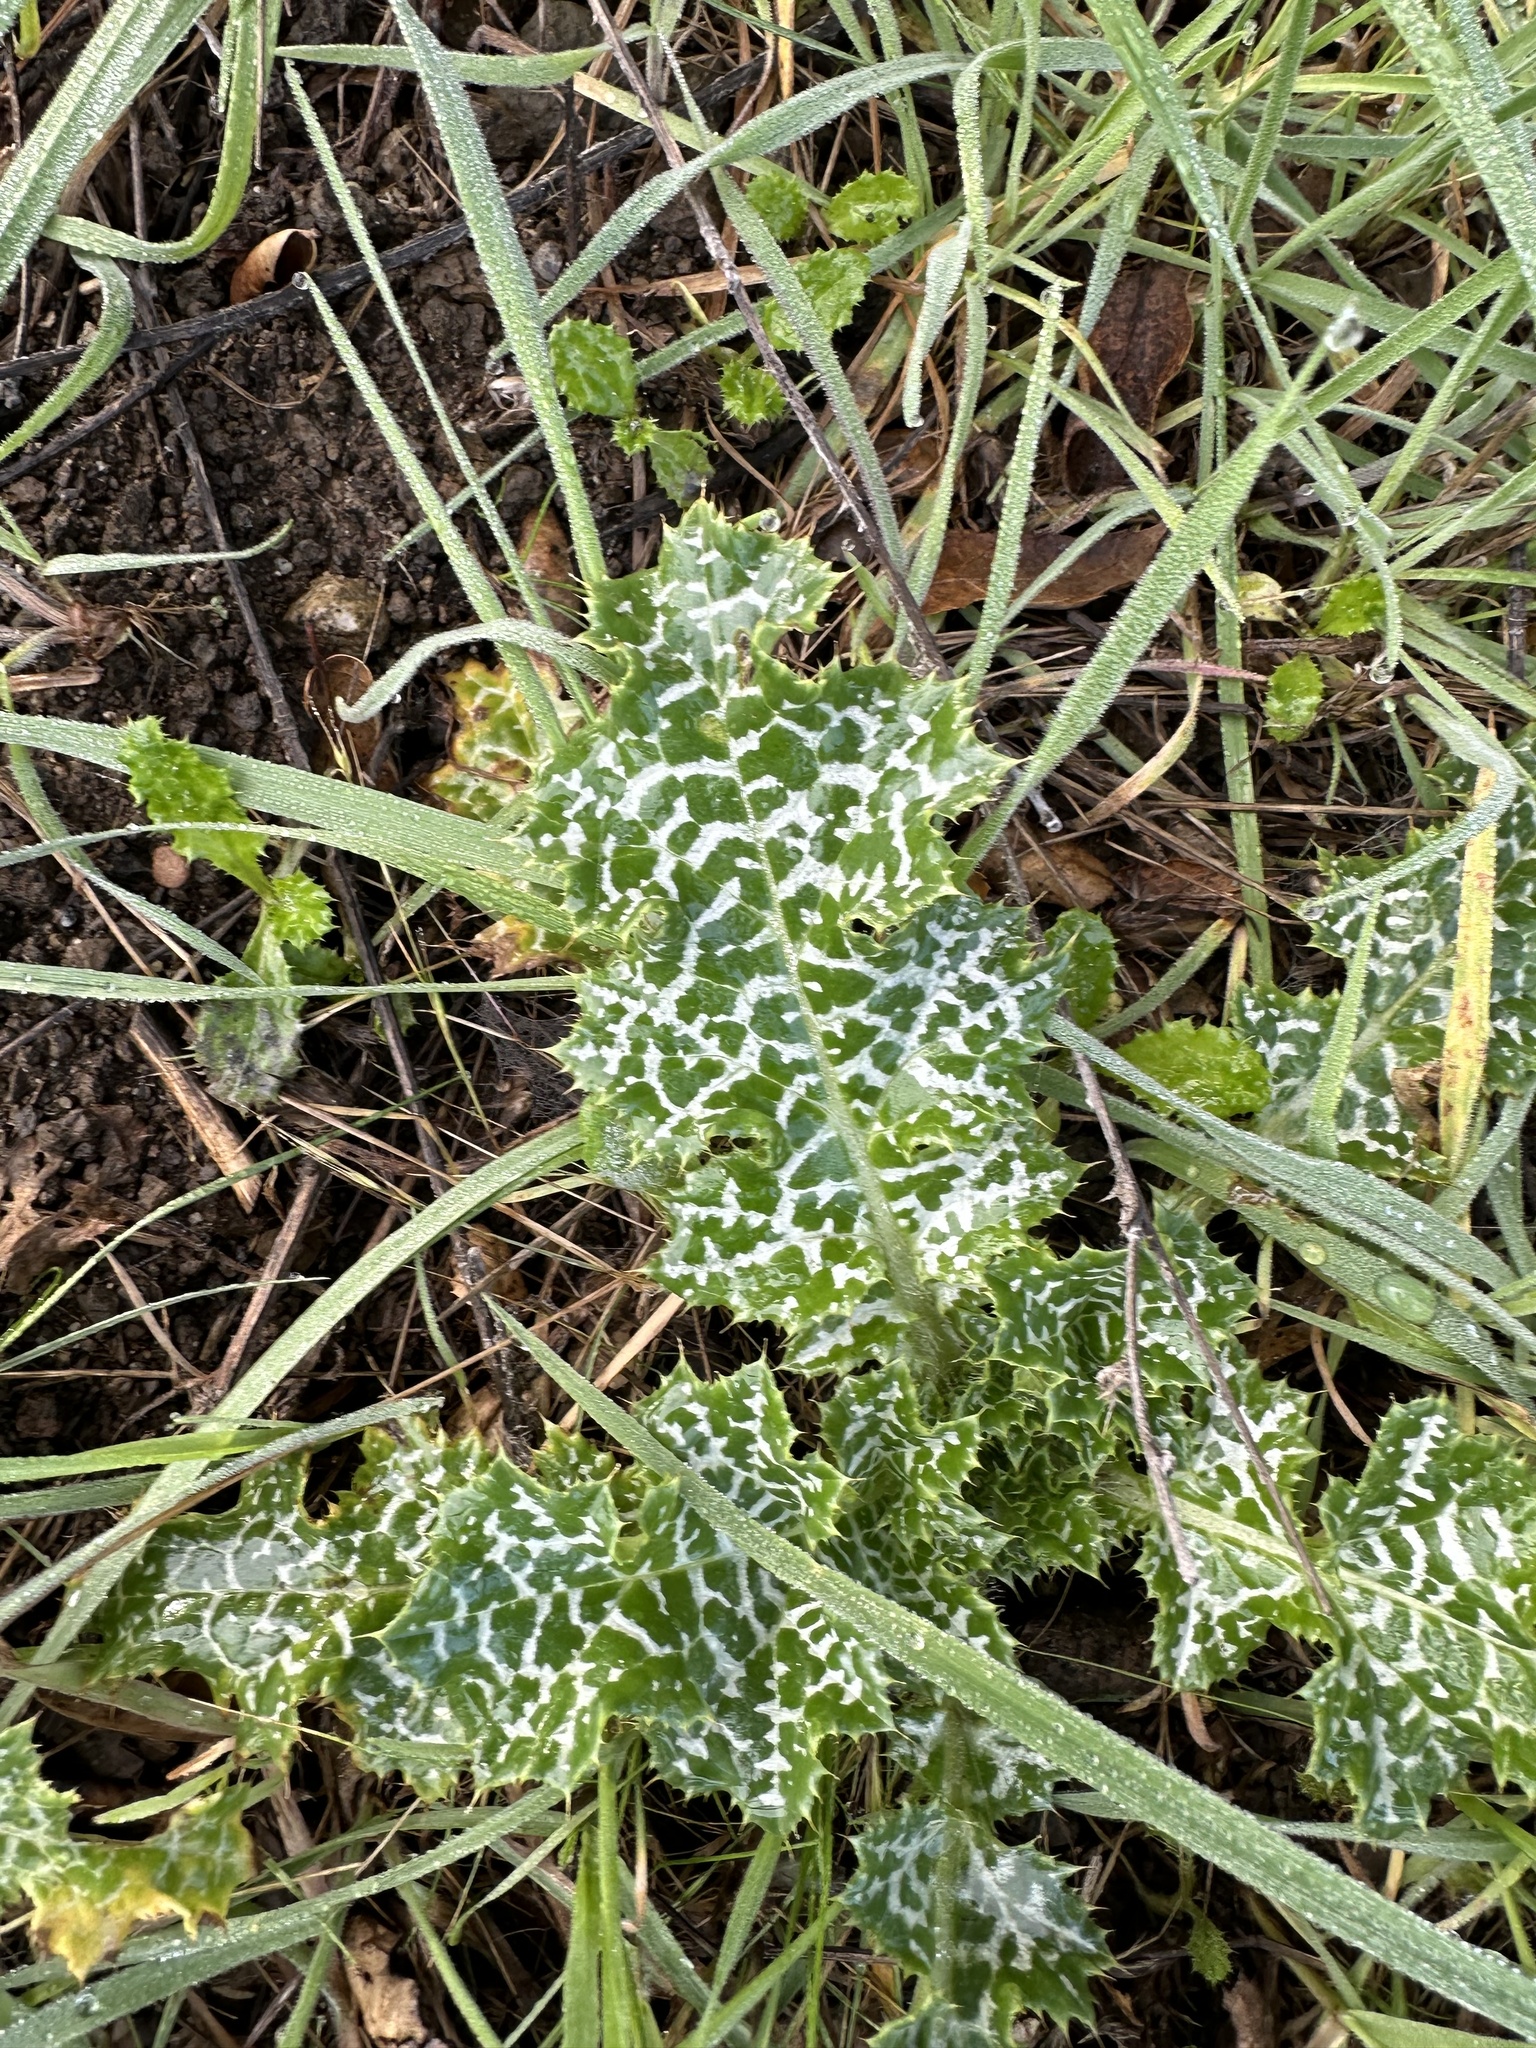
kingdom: Plantae
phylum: Tracheophyta
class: Magnoliopsida
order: Asterales
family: Asteraceae
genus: Silybum
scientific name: Silybum marianum
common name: Milk thistle
